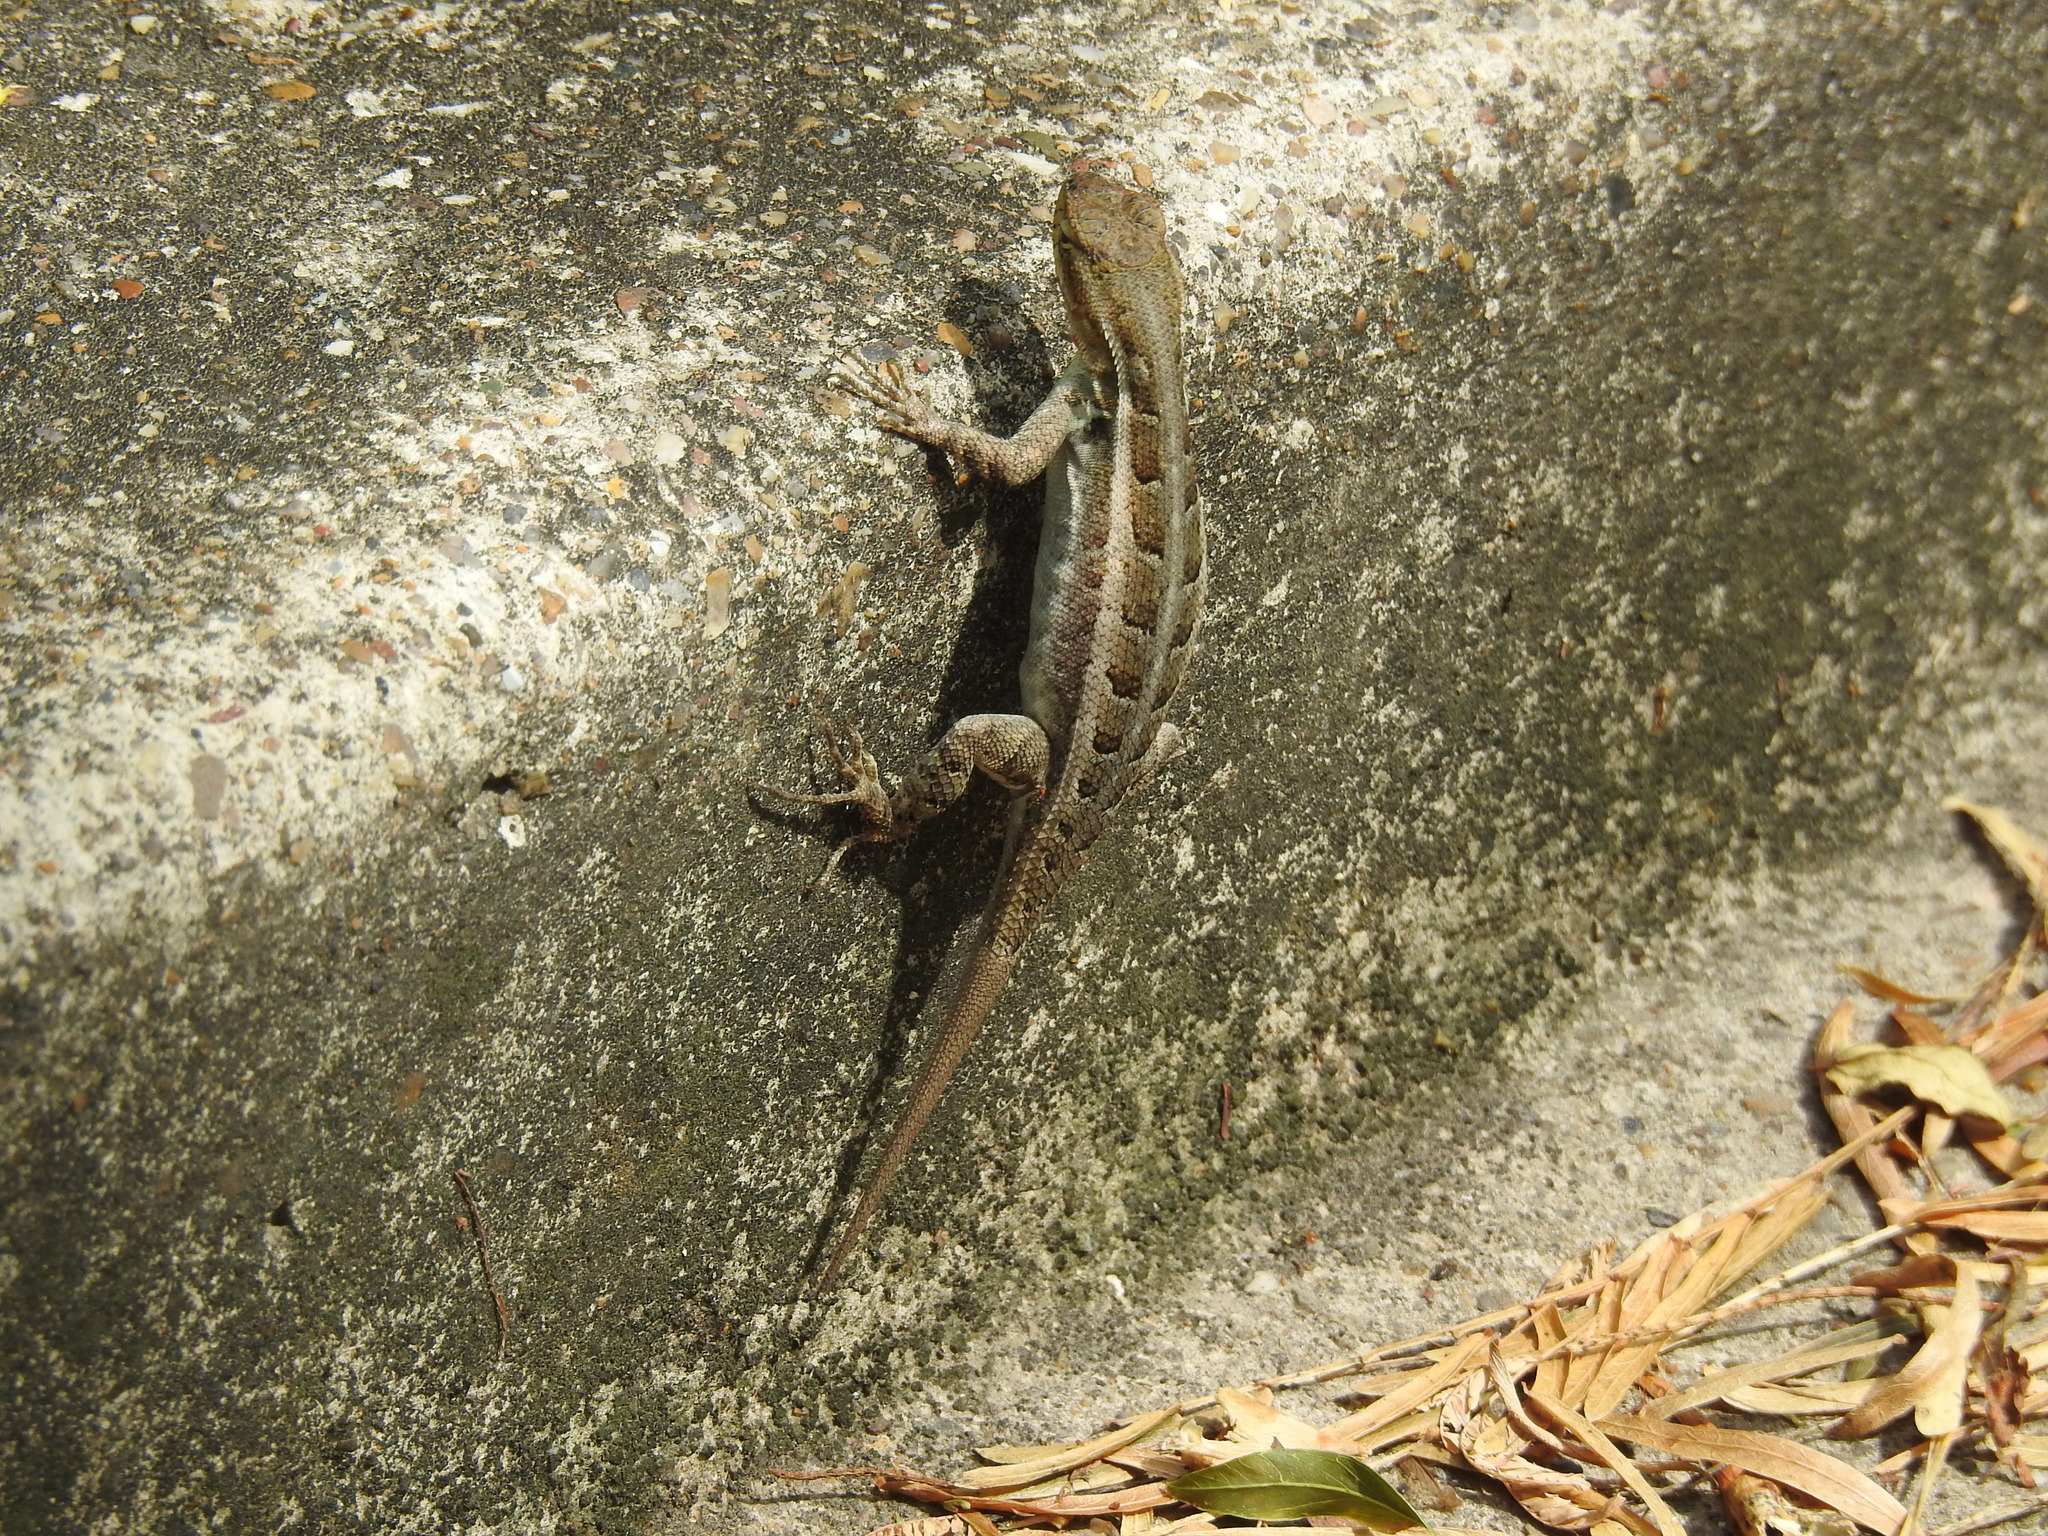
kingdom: Animalia
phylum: Chordata
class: Squamata
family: Phrynosomatidae
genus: Sceloporus
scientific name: Sceloporus variabilis
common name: Rosebelly lizard
